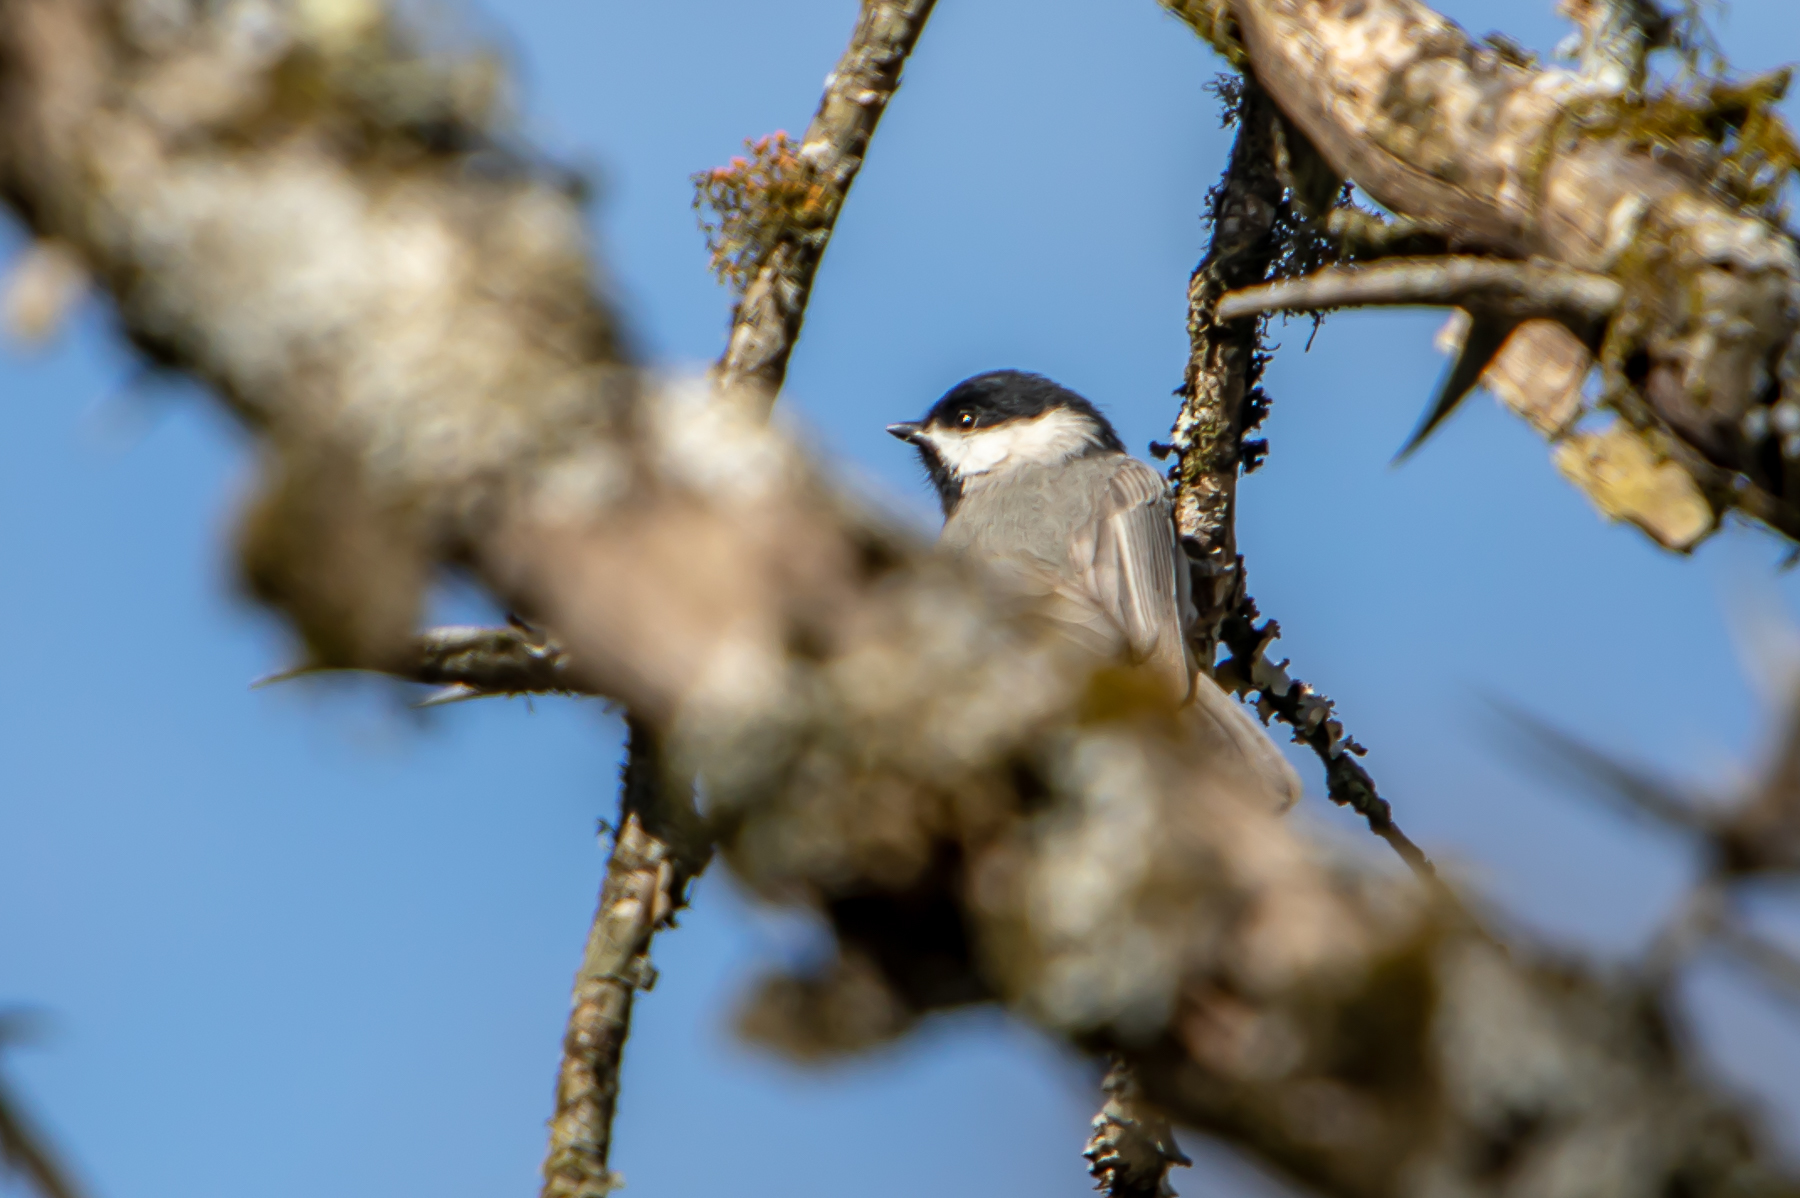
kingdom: Animalia
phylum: Chordata
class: Aves
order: Passeriformes
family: Paridae
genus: Poecile
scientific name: Poecile carolinensis
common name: Carolina chickadee
